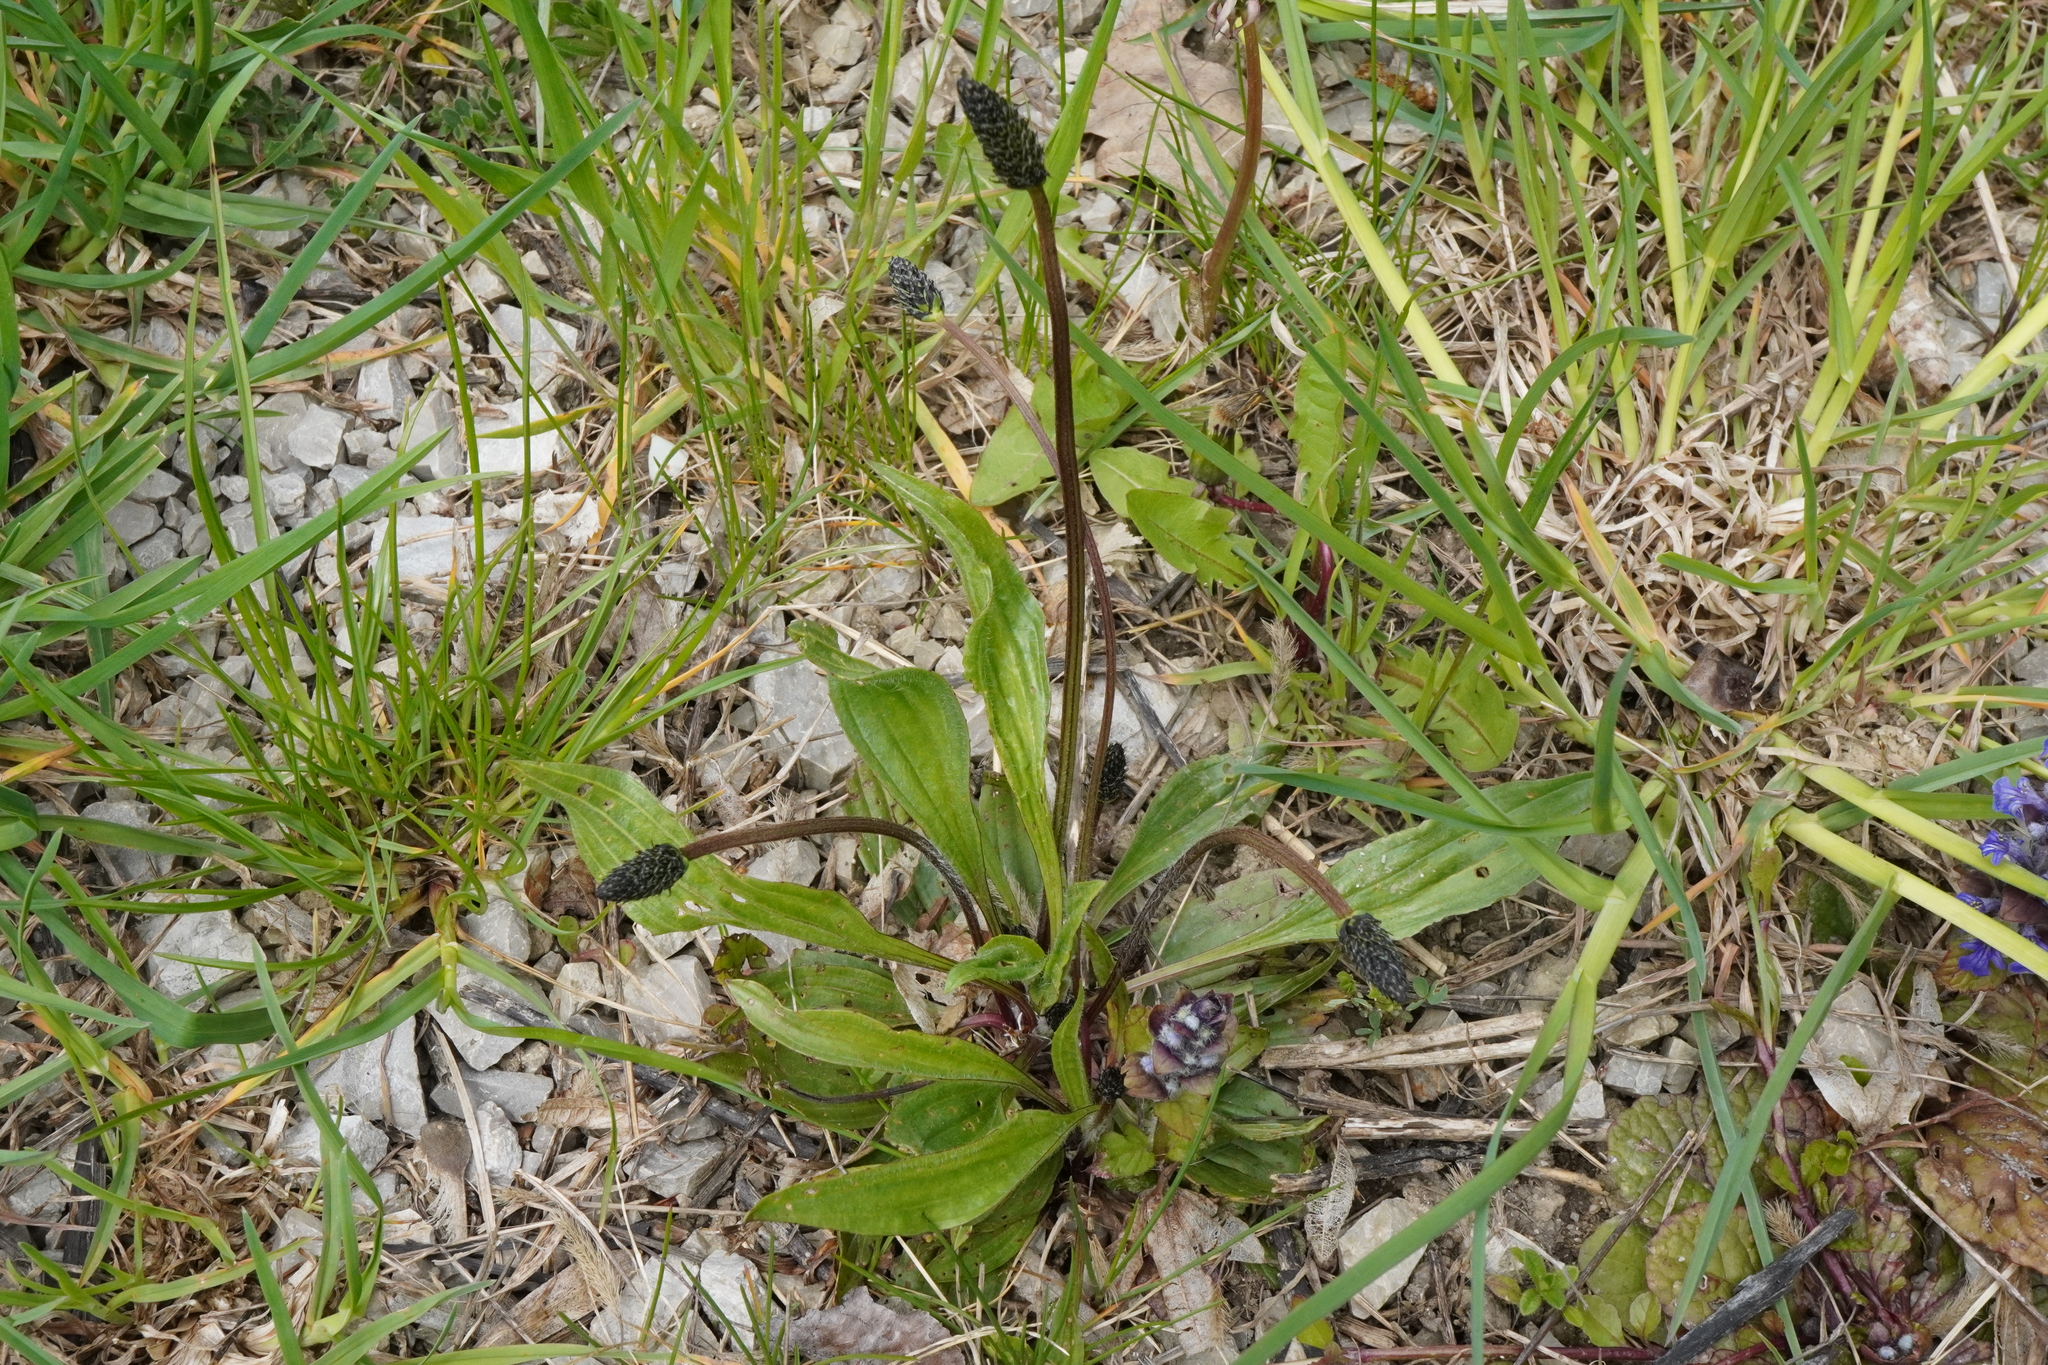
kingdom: Plantae
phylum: Tracheophyta
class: Magnoliopsida
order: Lamiales
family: Plantaginaceae
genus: Plantago
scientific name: Plantago lanceolata
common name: Ribwort plantain
